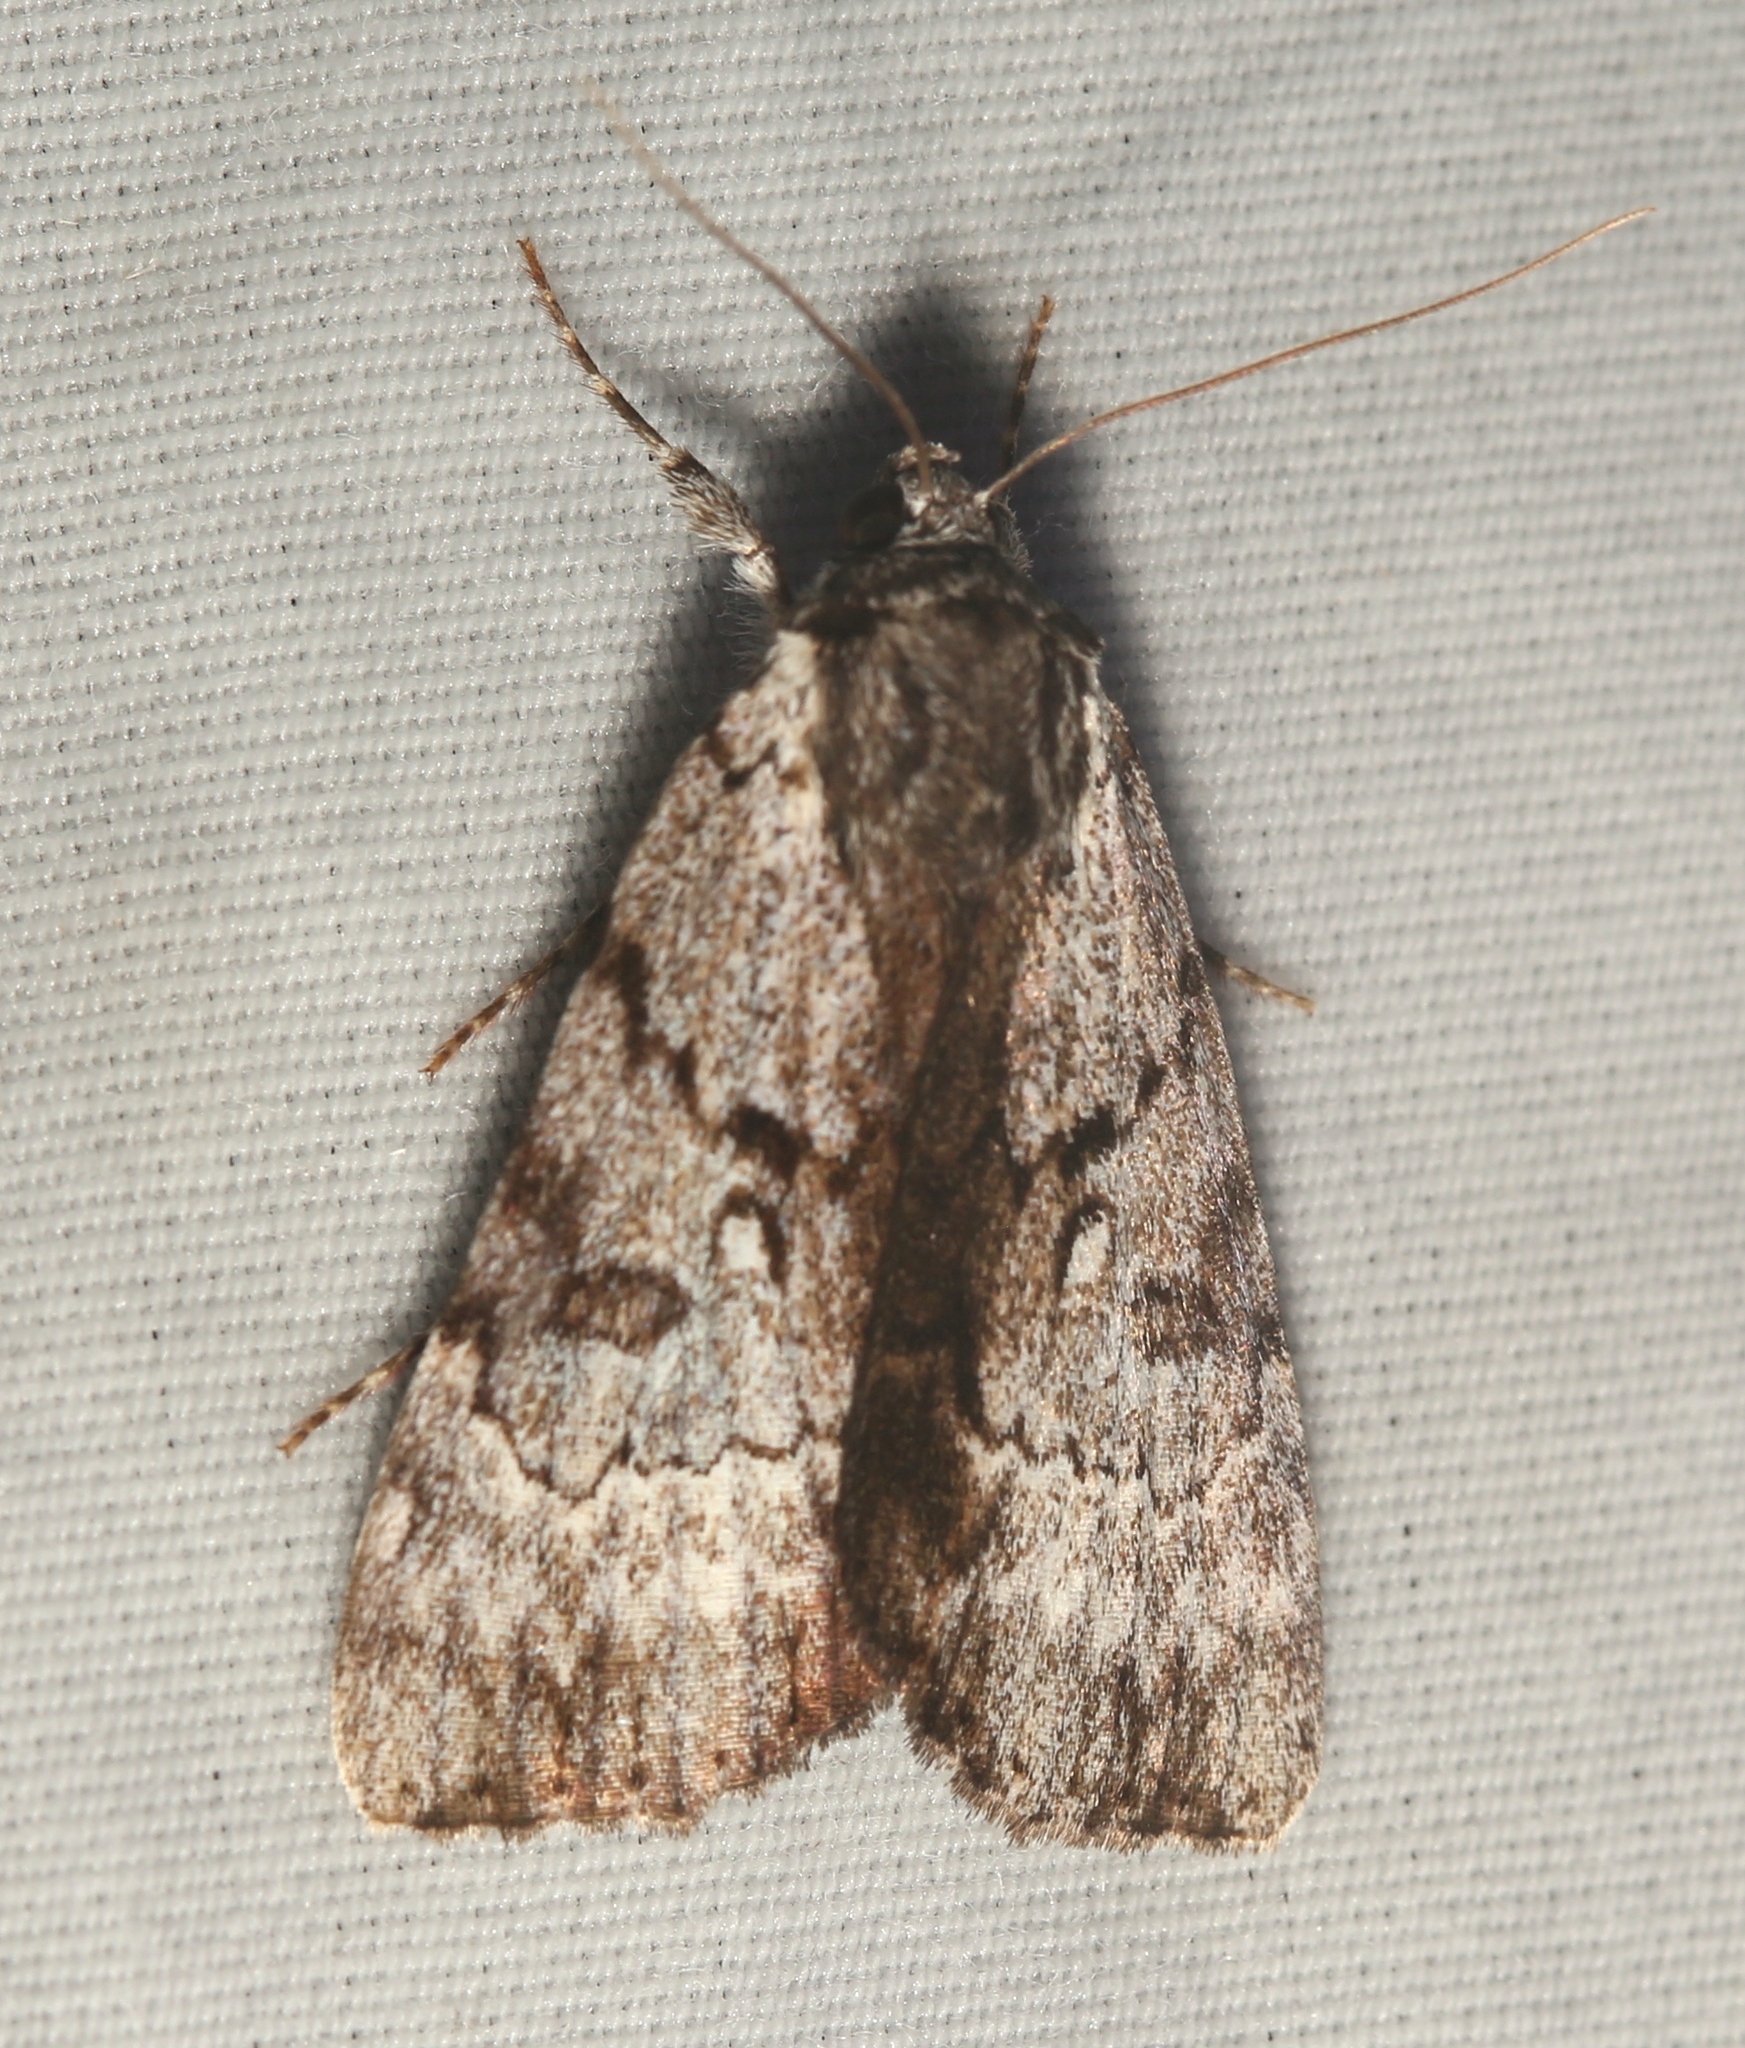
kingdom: Animalia
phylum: Arthropoda
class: Insecta
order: Lepidoptera
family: Erebidae
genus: Catocala
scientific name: Catocala andromedae
